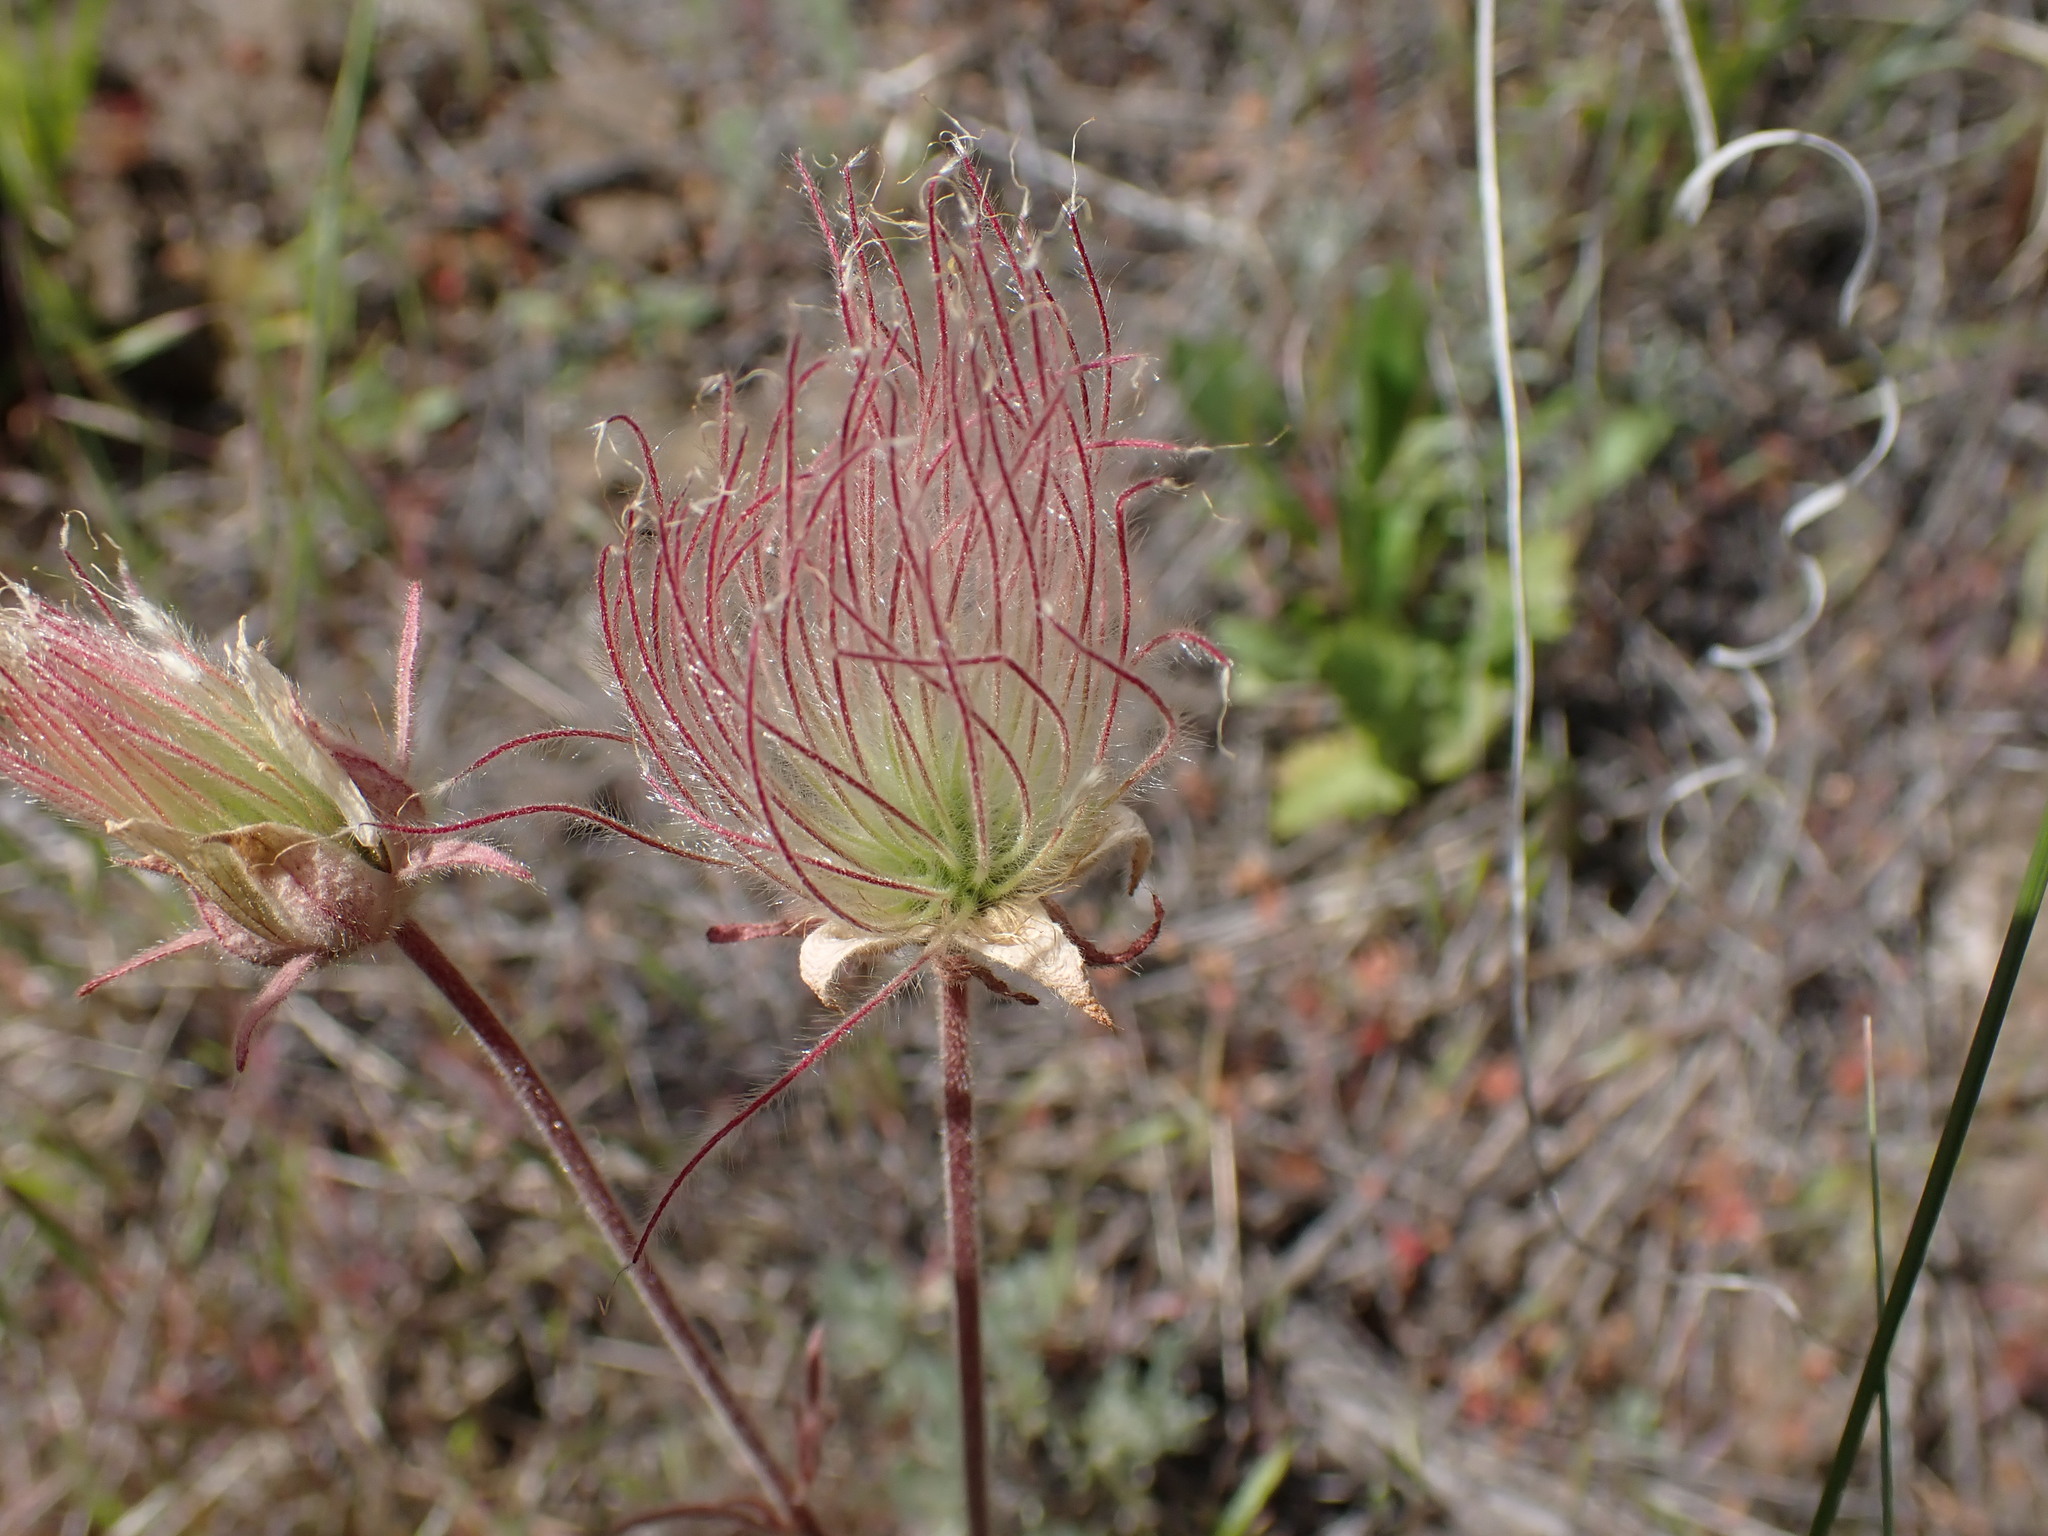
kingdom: Plantae
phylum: Tracheophyta
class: Magnoliopsida
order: Rosales
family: Rosaceae
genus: Geum
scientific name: Geum triflorum
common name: Old man's whiskers
